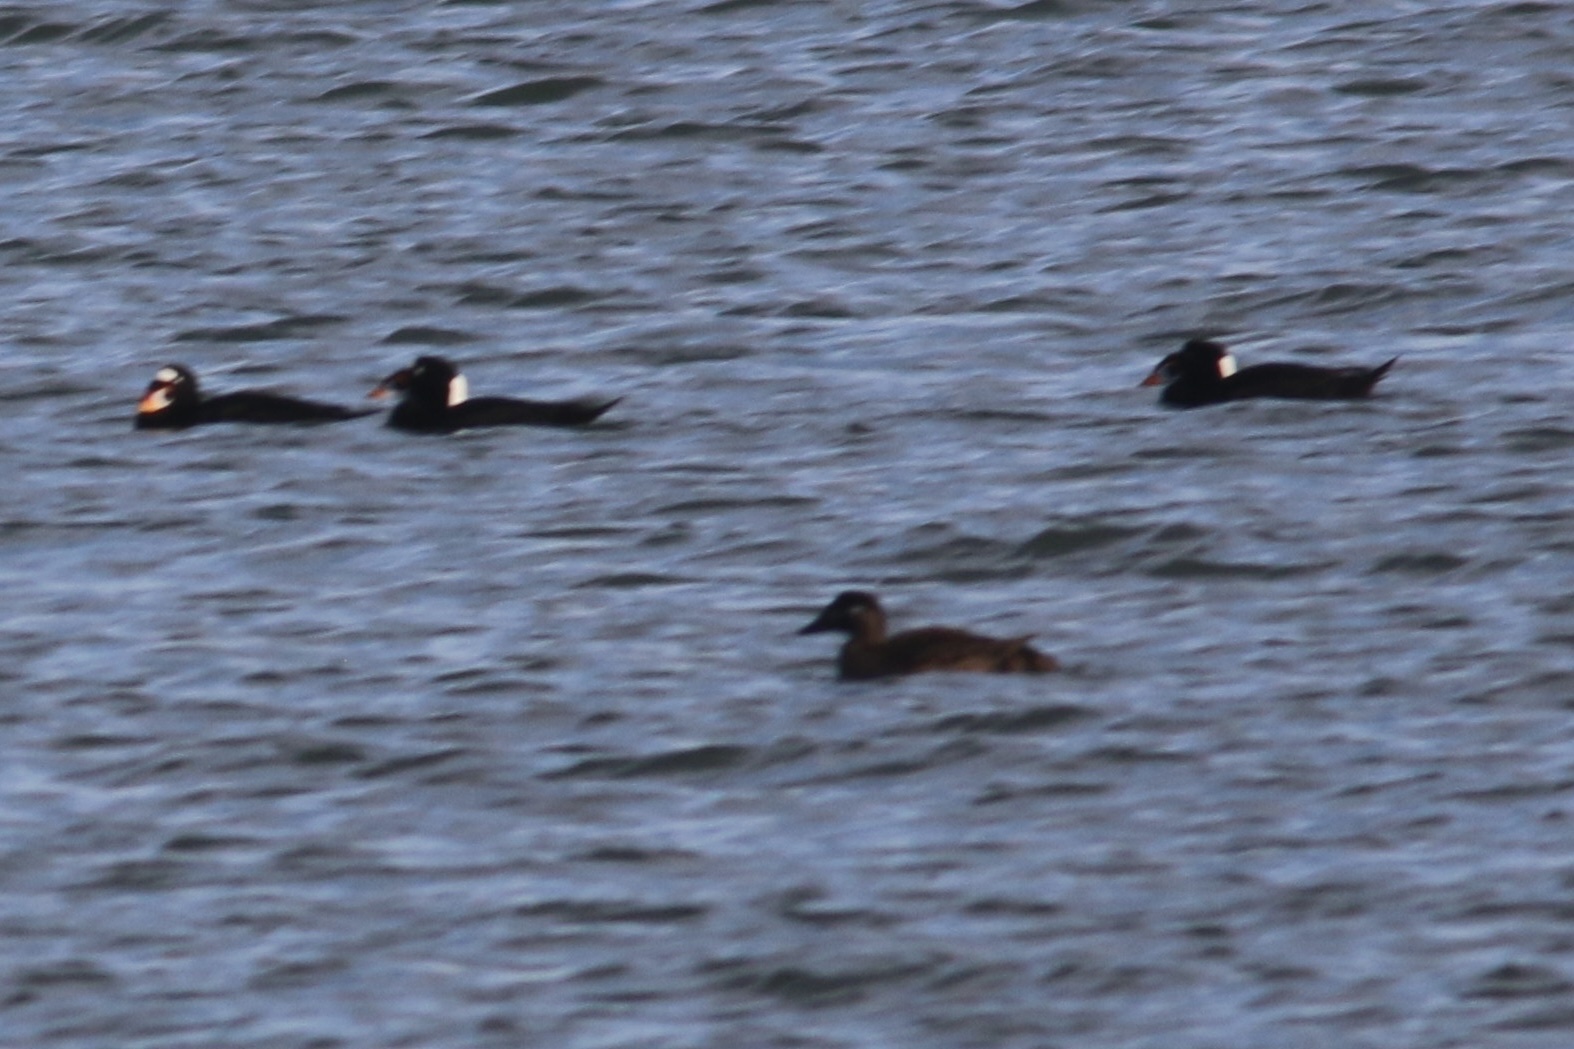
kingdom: Animalia
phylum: Chordata
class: Aves
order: Anseriformes
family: Anatidae
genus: Melanitta
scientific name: Melanitta perspicillata
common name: Surf scoter
